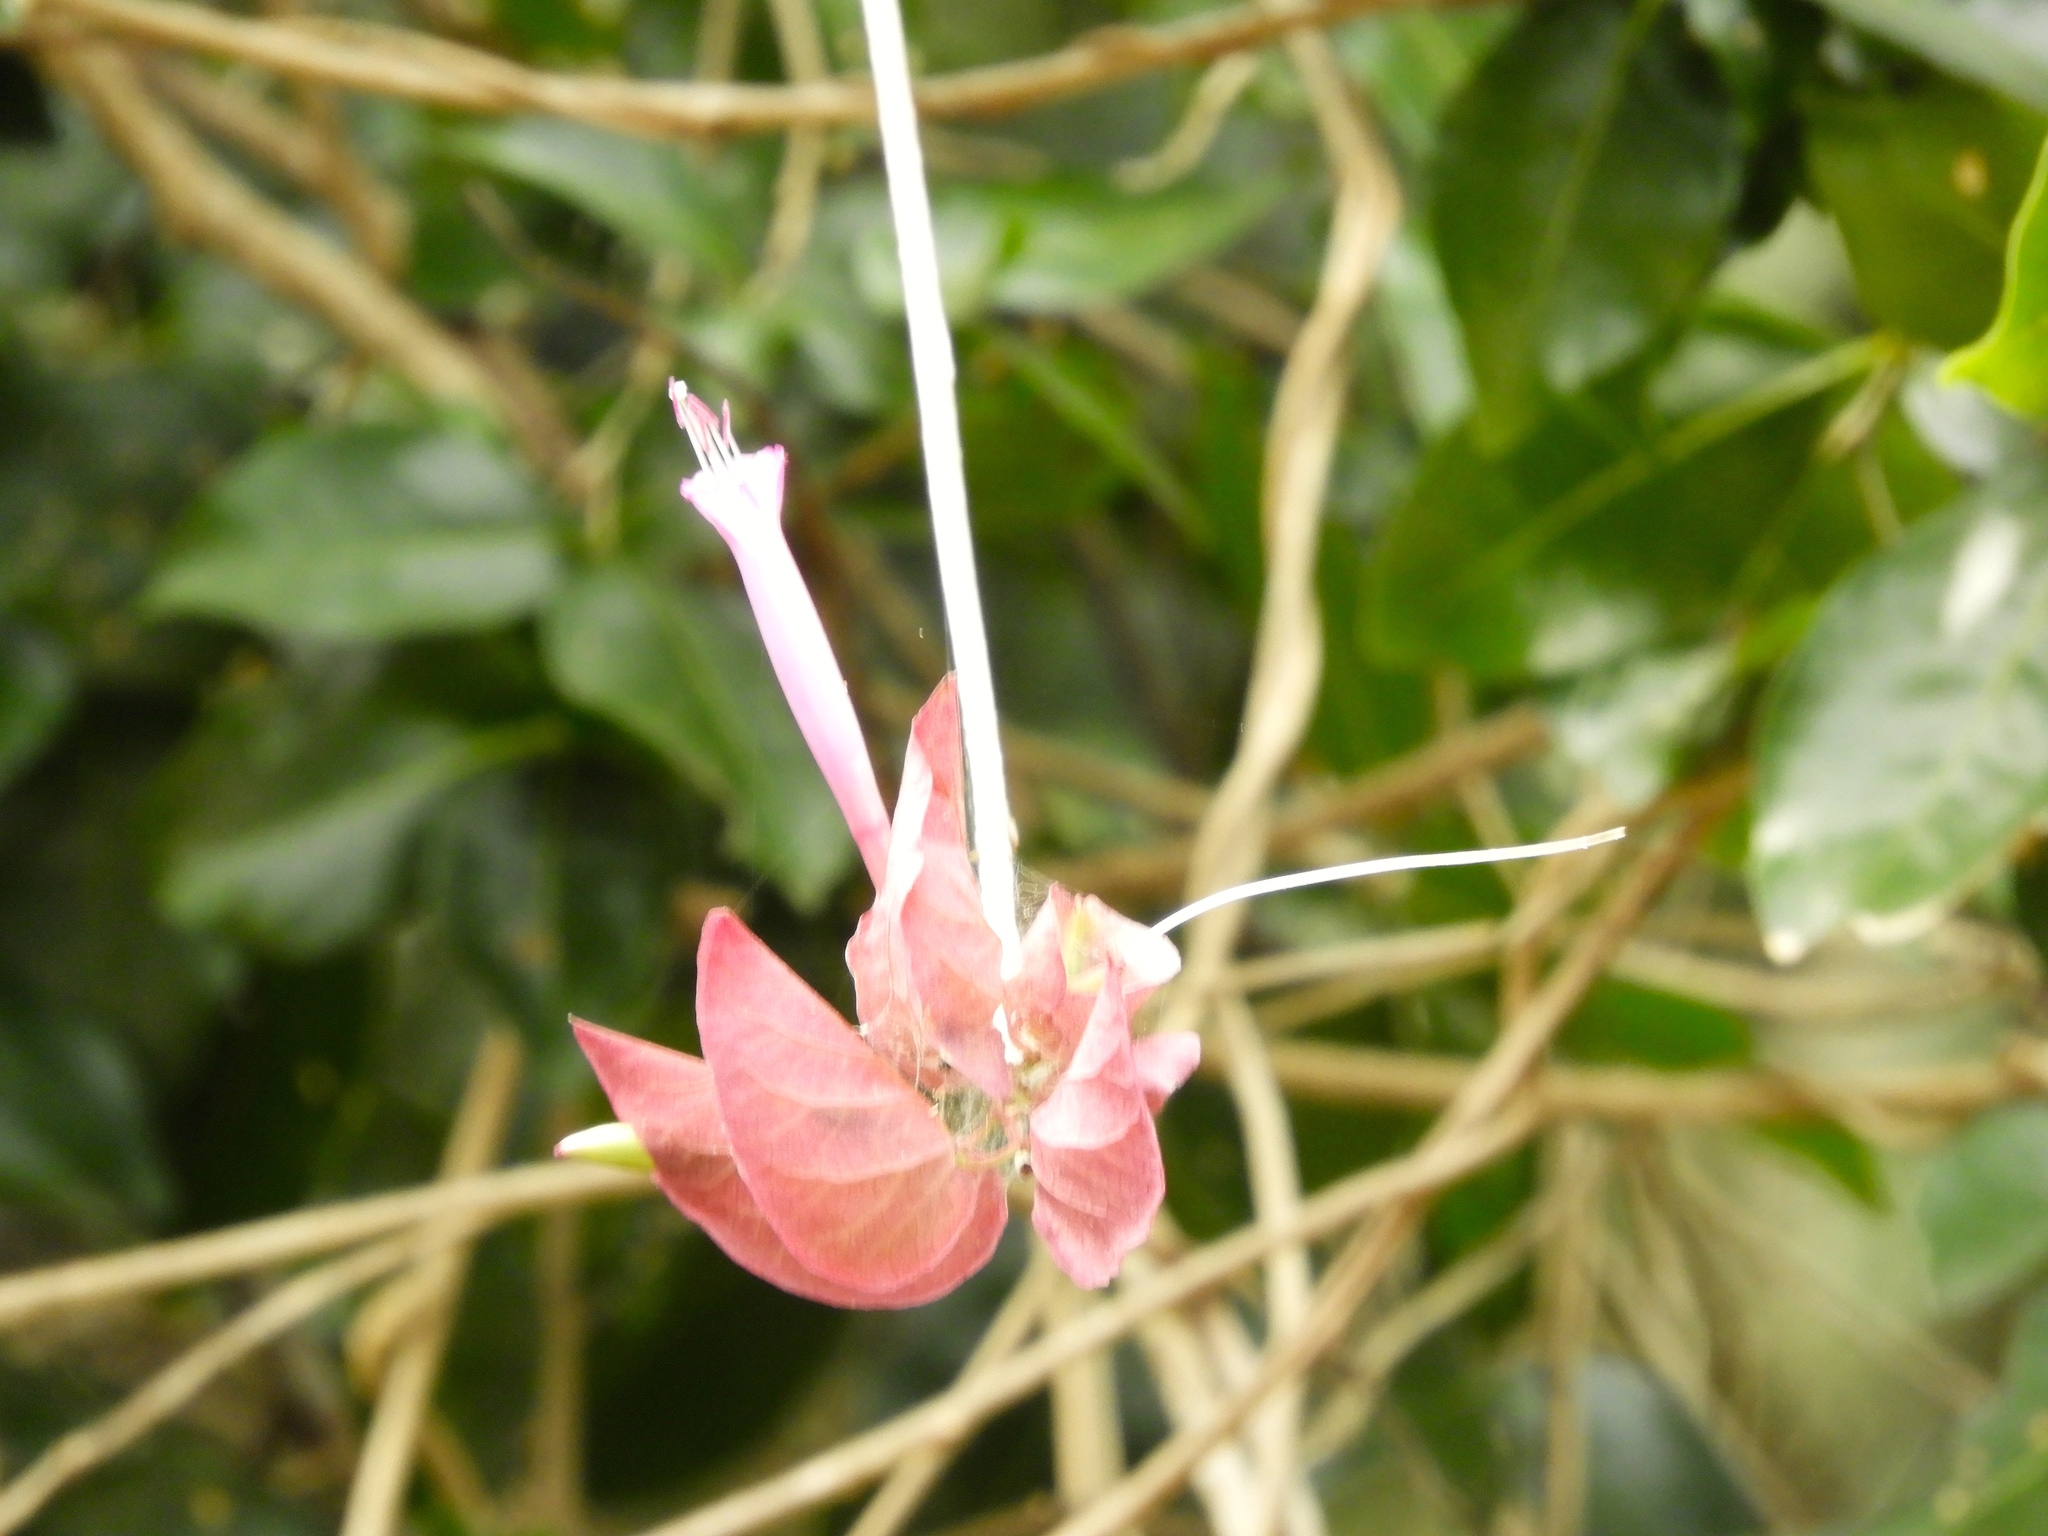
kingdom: Plantae
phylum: Tracheophyta
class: Magnoliopsida
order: Solanales
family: Convolvulaceae
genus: Ipomoea
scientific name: Ipomoea bracteata
